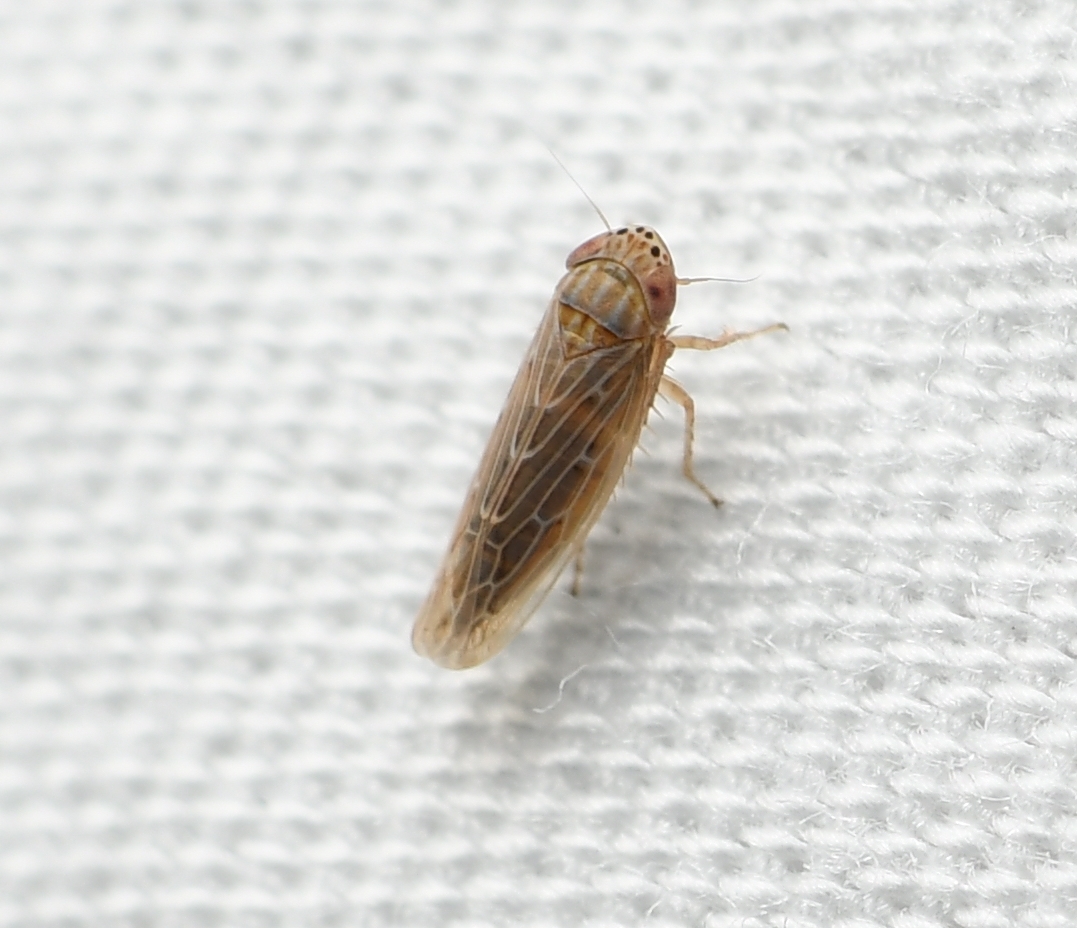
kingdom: Animalia
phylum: Arthropoda
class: Insecta
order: Hemiptera
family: Cicadellidae
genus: Graminella
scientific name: Graminella sonora
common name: Lesser lawn leafhopper
